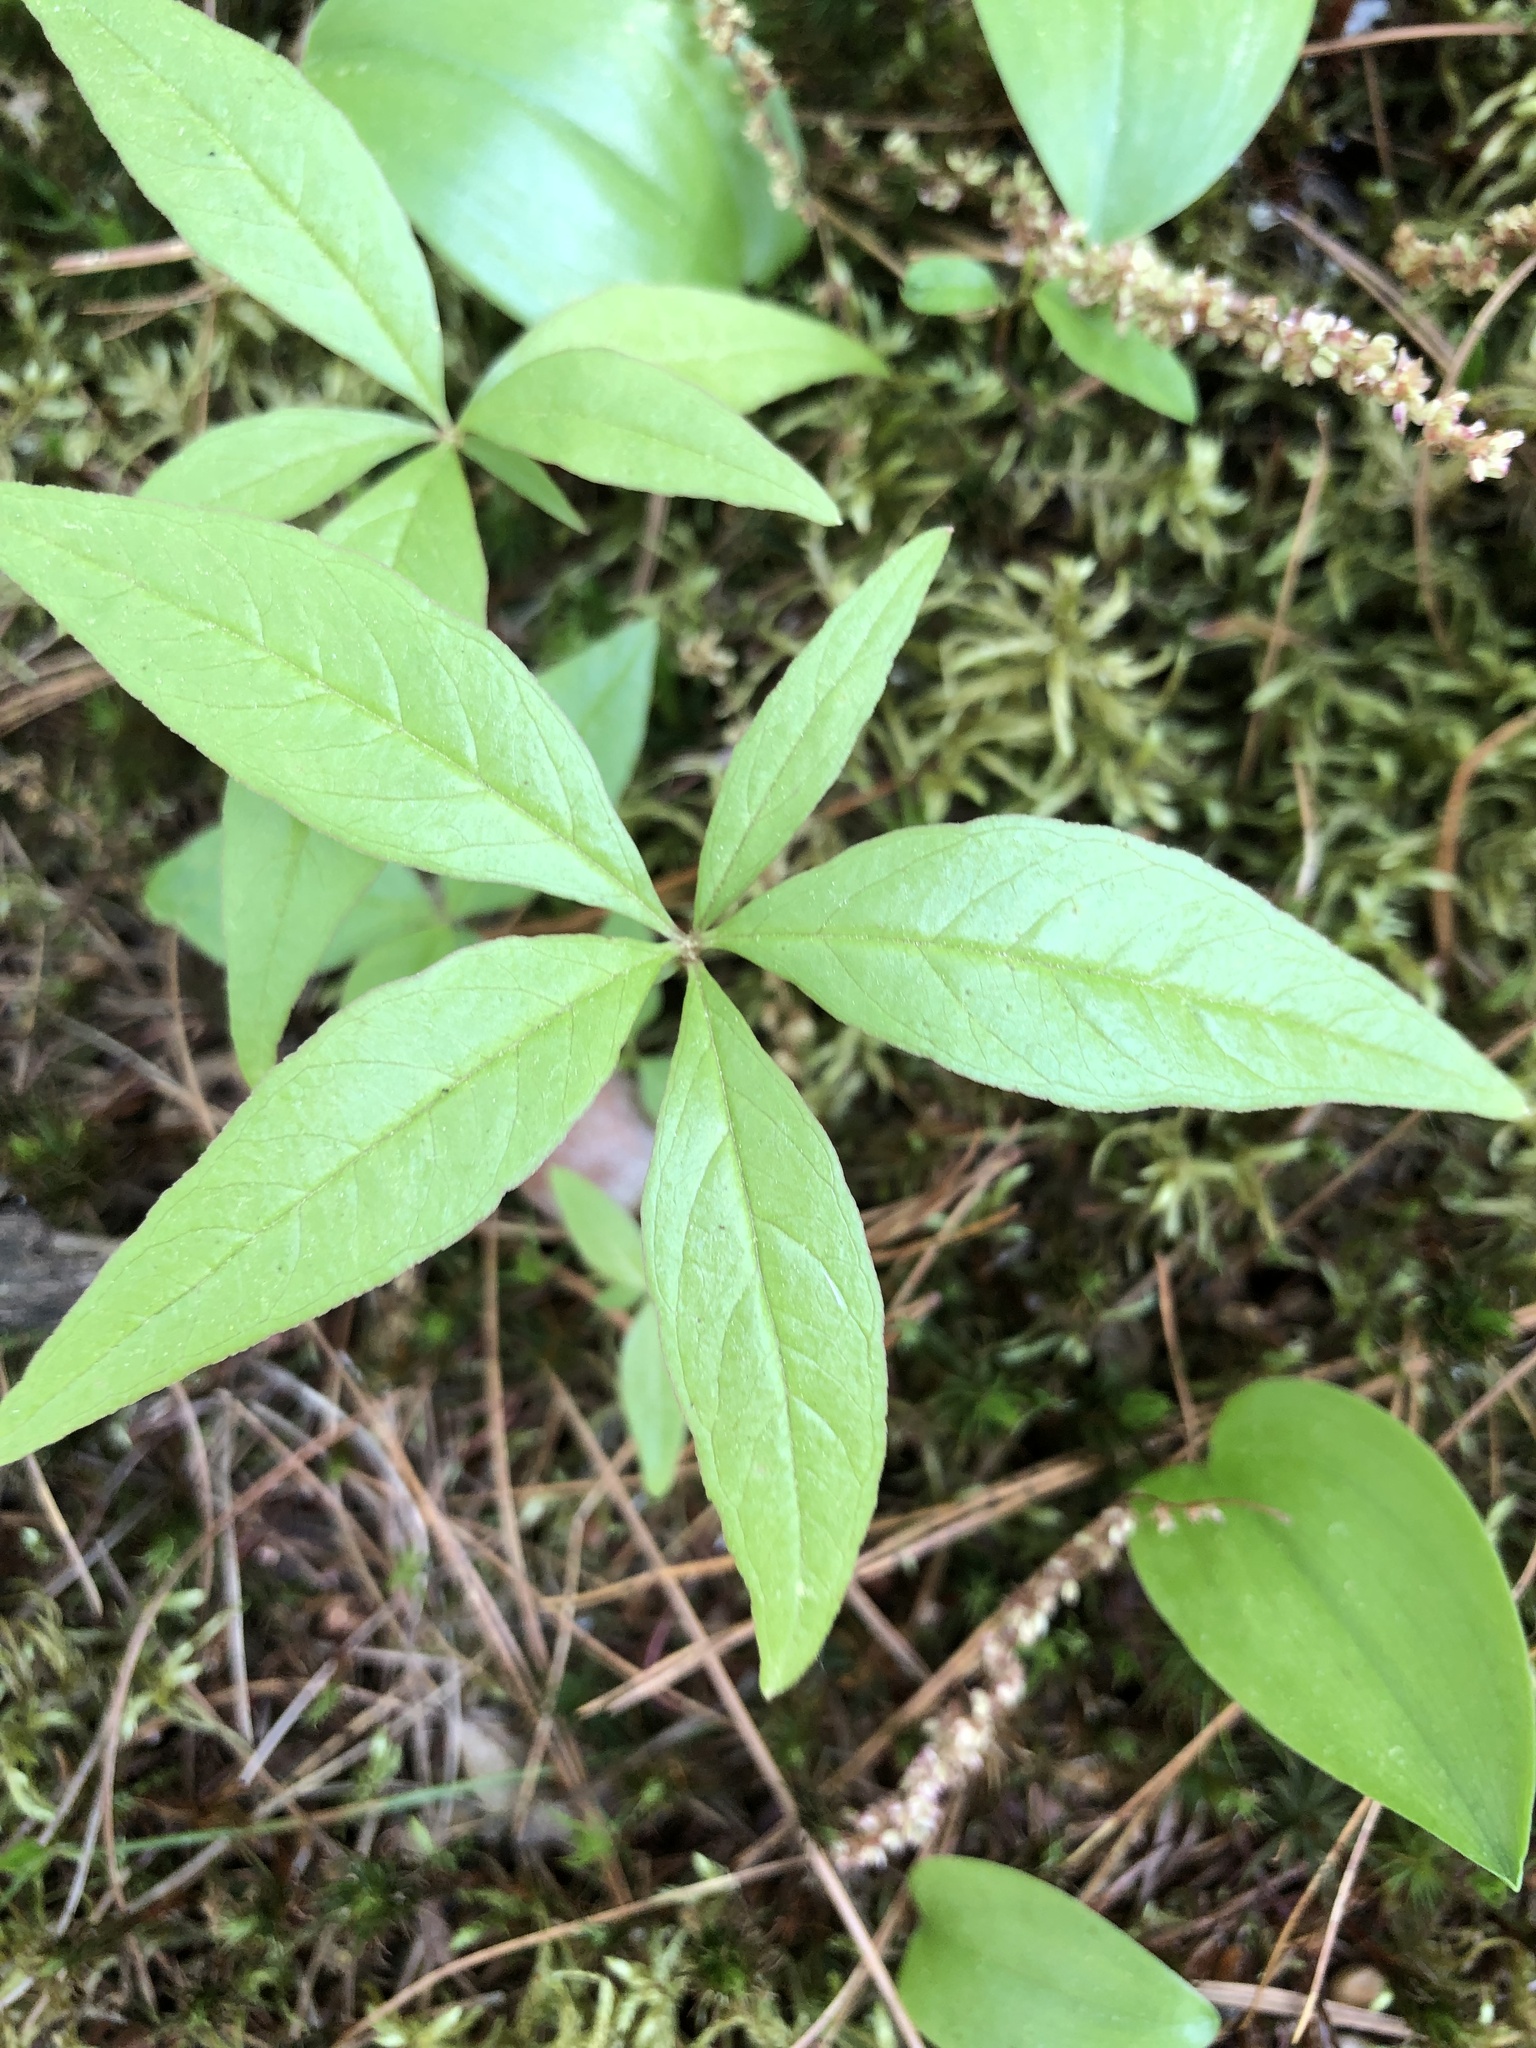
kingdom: Plantae
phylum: Tracheophyta
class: Magnoliopsida
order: Ericales
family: Primulaceae
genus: Lysimachia
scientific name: Lysimachia borealis
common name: American starflower
